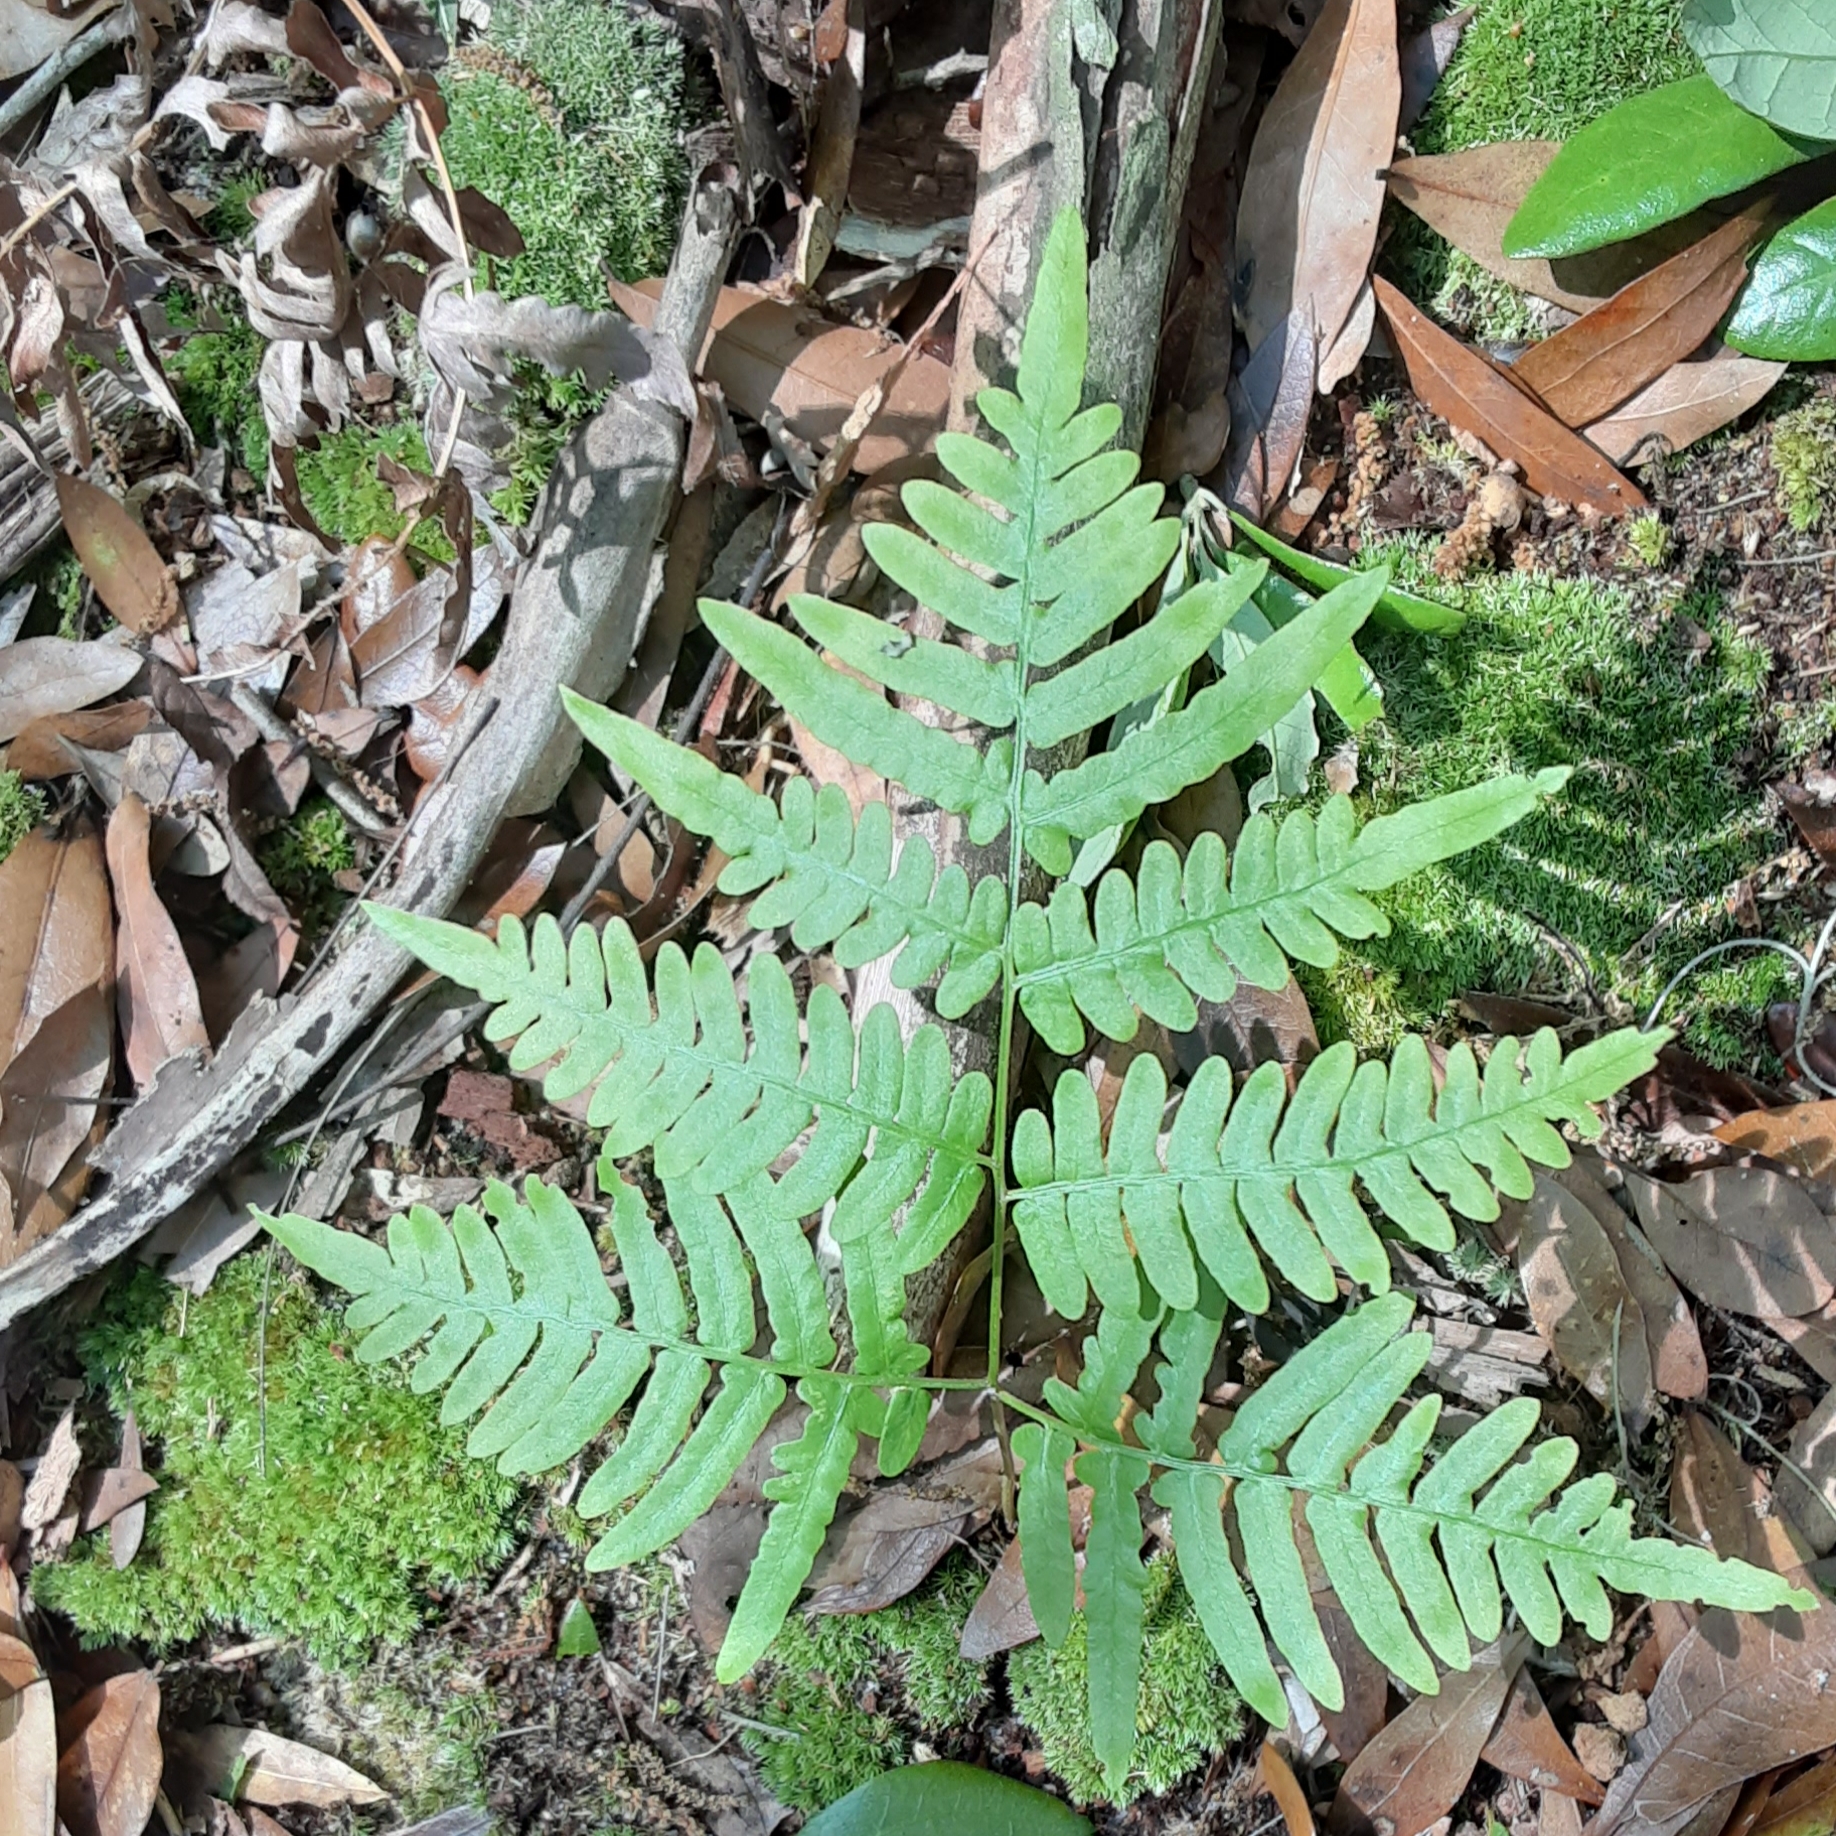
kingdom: Plantae
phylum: Tracheophyta
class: Polypodiopsida
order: Polypodiales
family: Dennstaedtiaceae
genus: Pteridium
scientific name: Pteridium aquilinum
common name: Bracken
